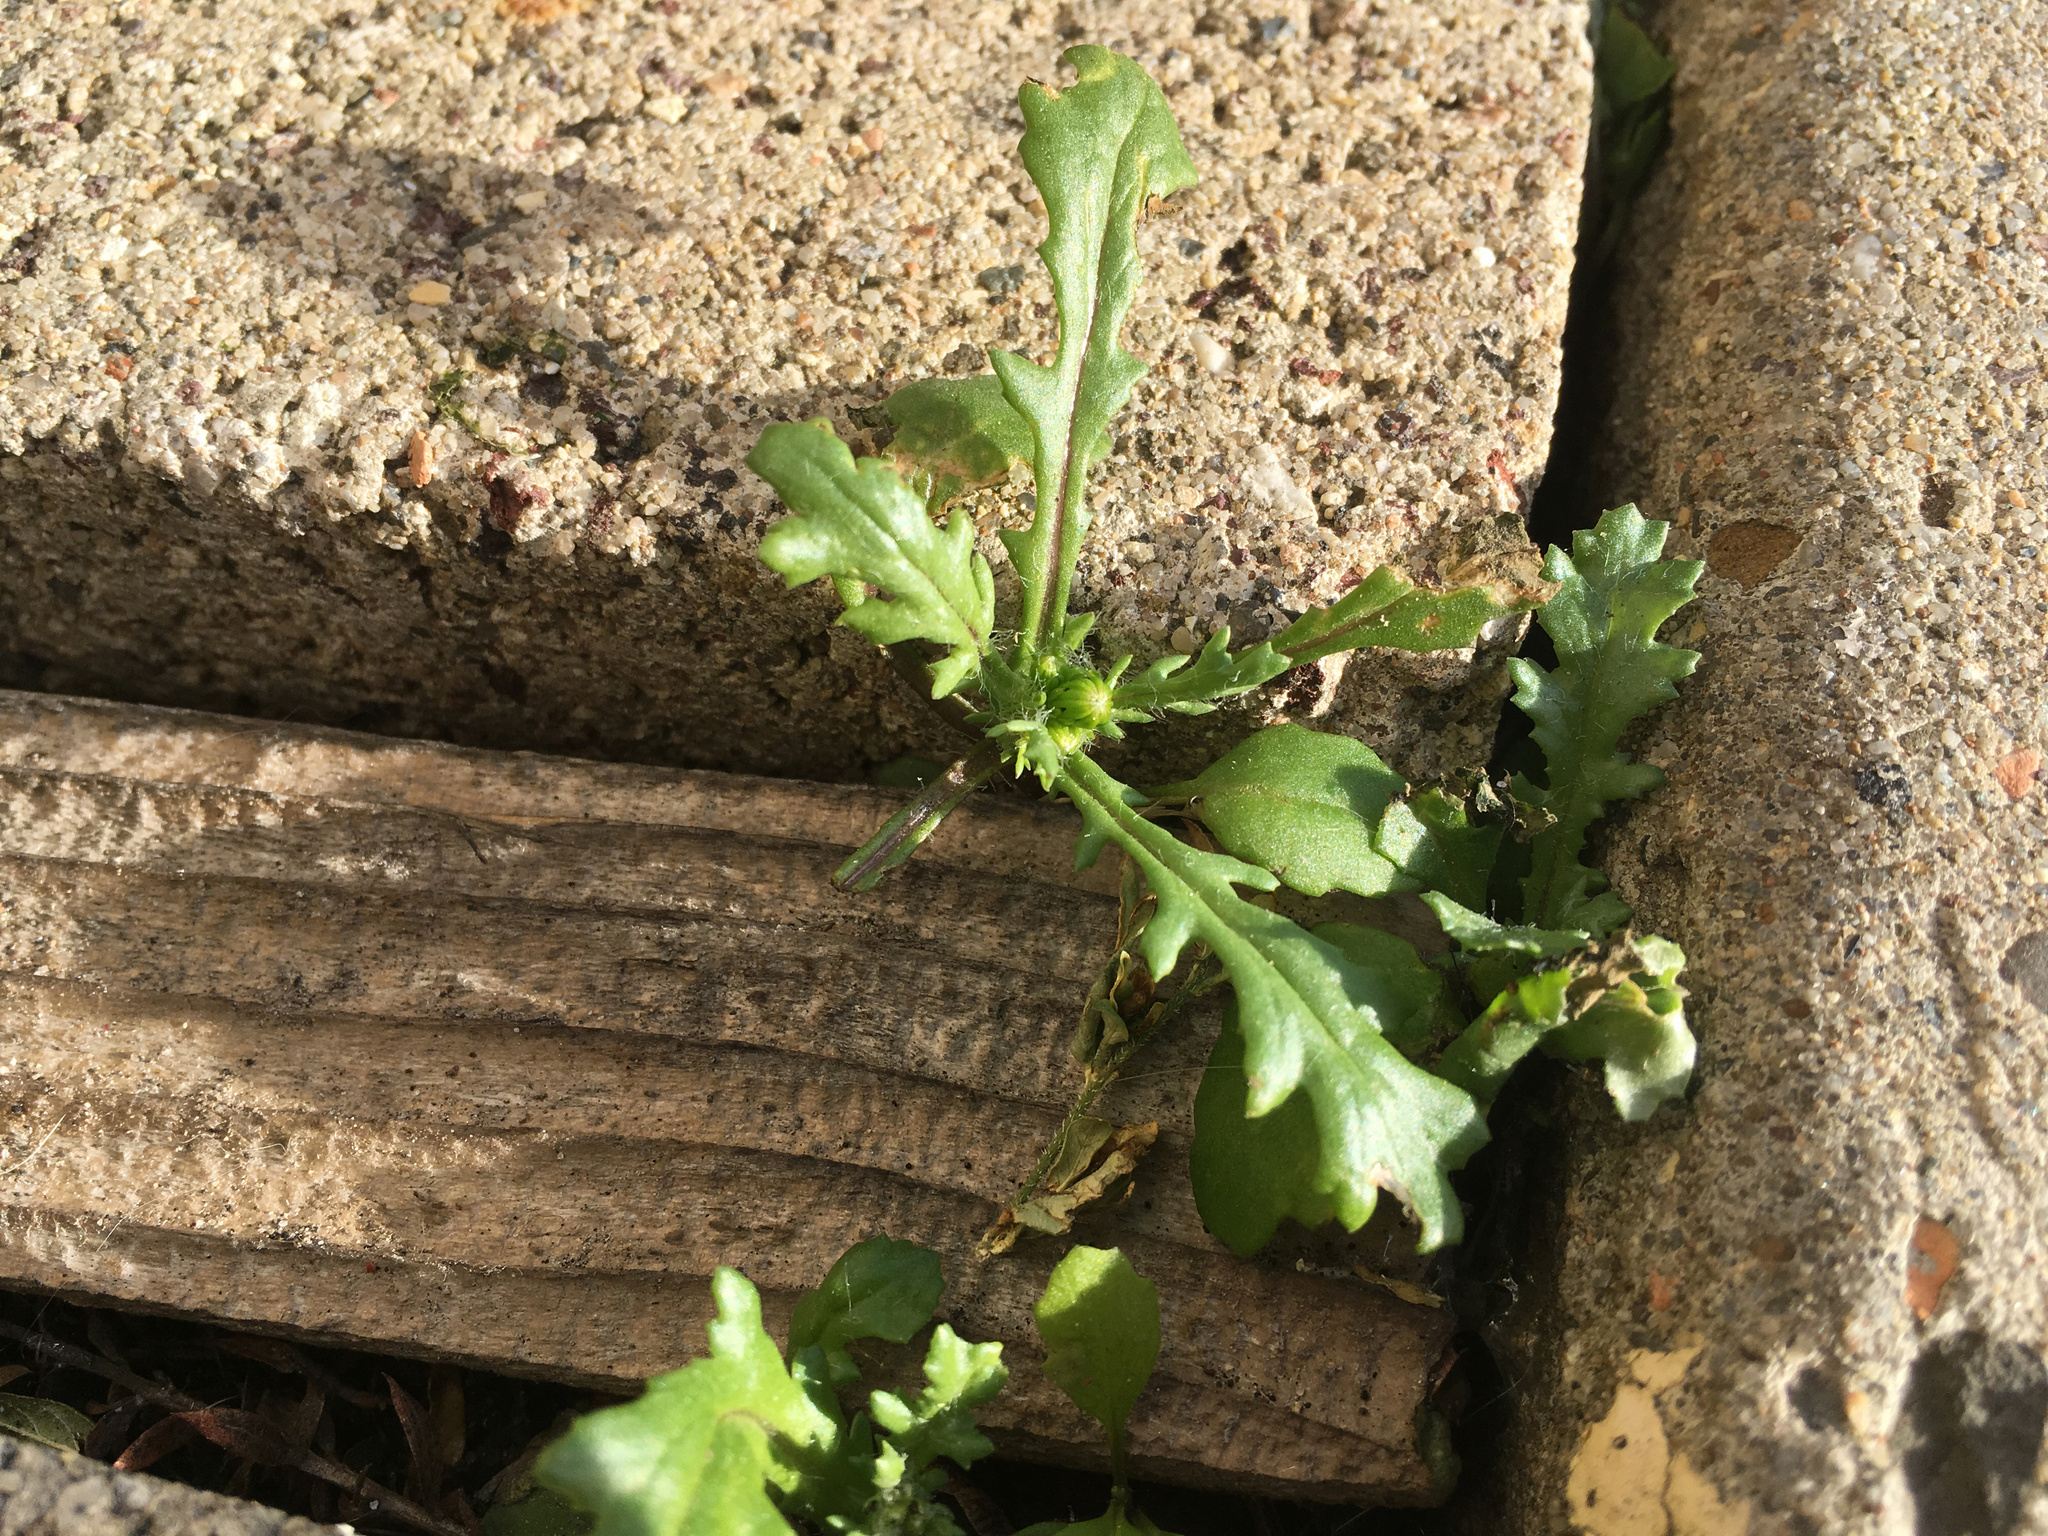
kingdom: Plantae
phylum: Tracheophyta
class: Magnoliopsida
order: Asterales
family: Asteraceae
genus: Senecio
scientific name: Senecio vulgaris
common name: Old-man-in-the-spring
